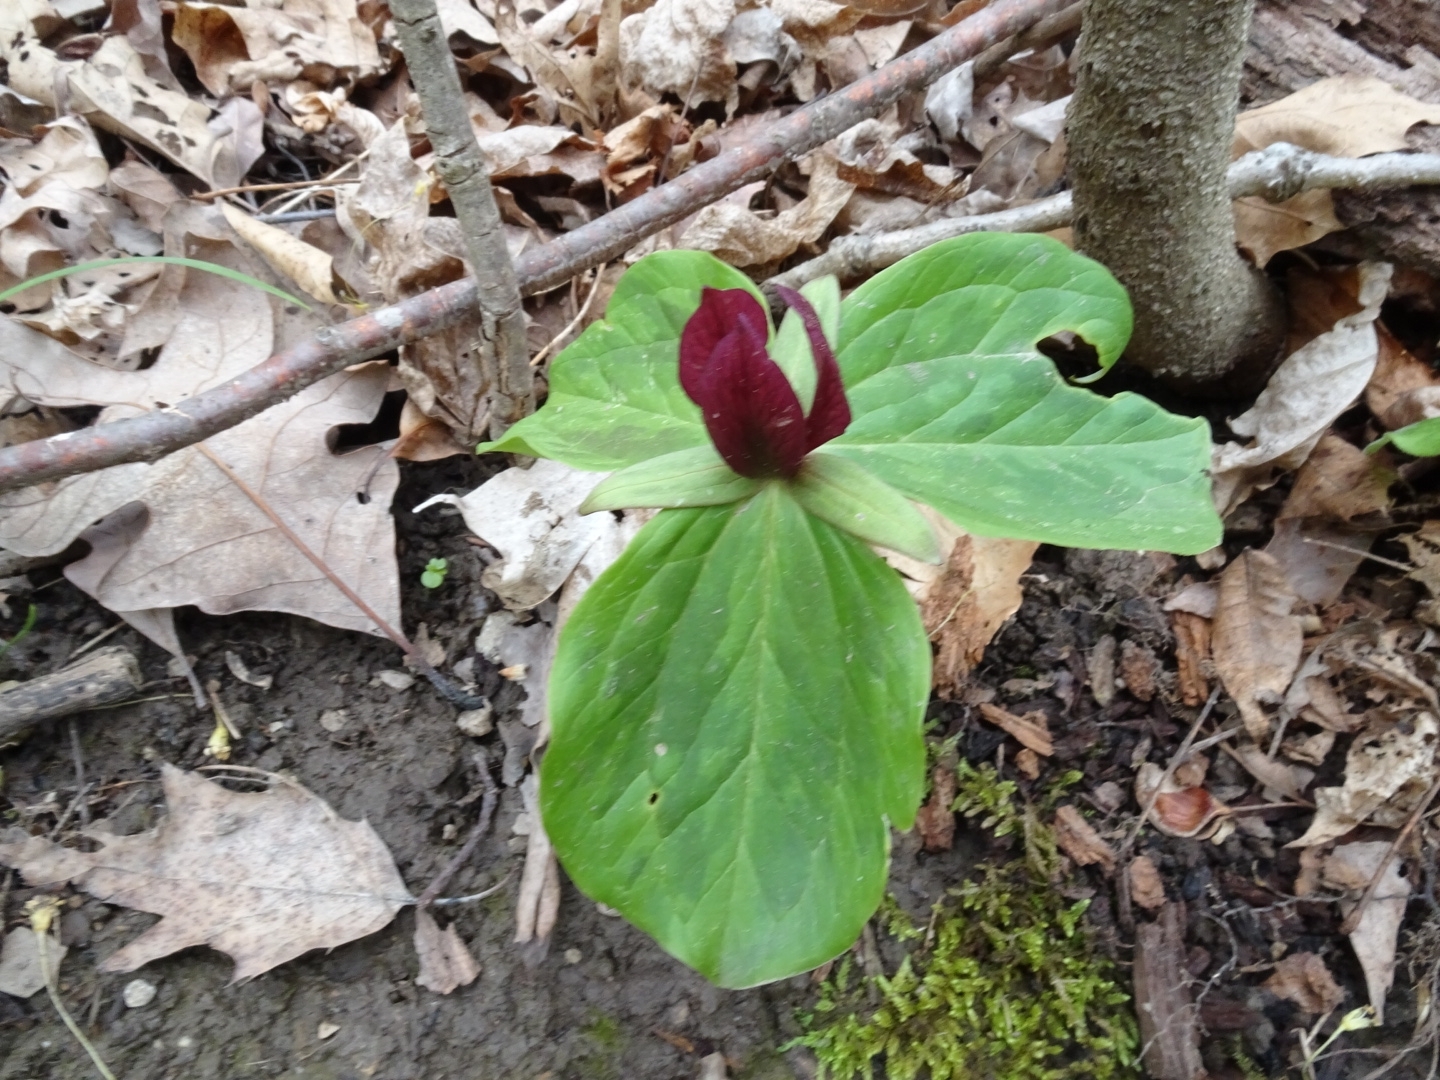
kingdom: Plantae
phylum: Tracheophyta
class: Liliopsida
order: Liliales
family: Melanthiaceae
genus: Trillium
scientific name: Trillium sessile
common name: Sessile trillium
